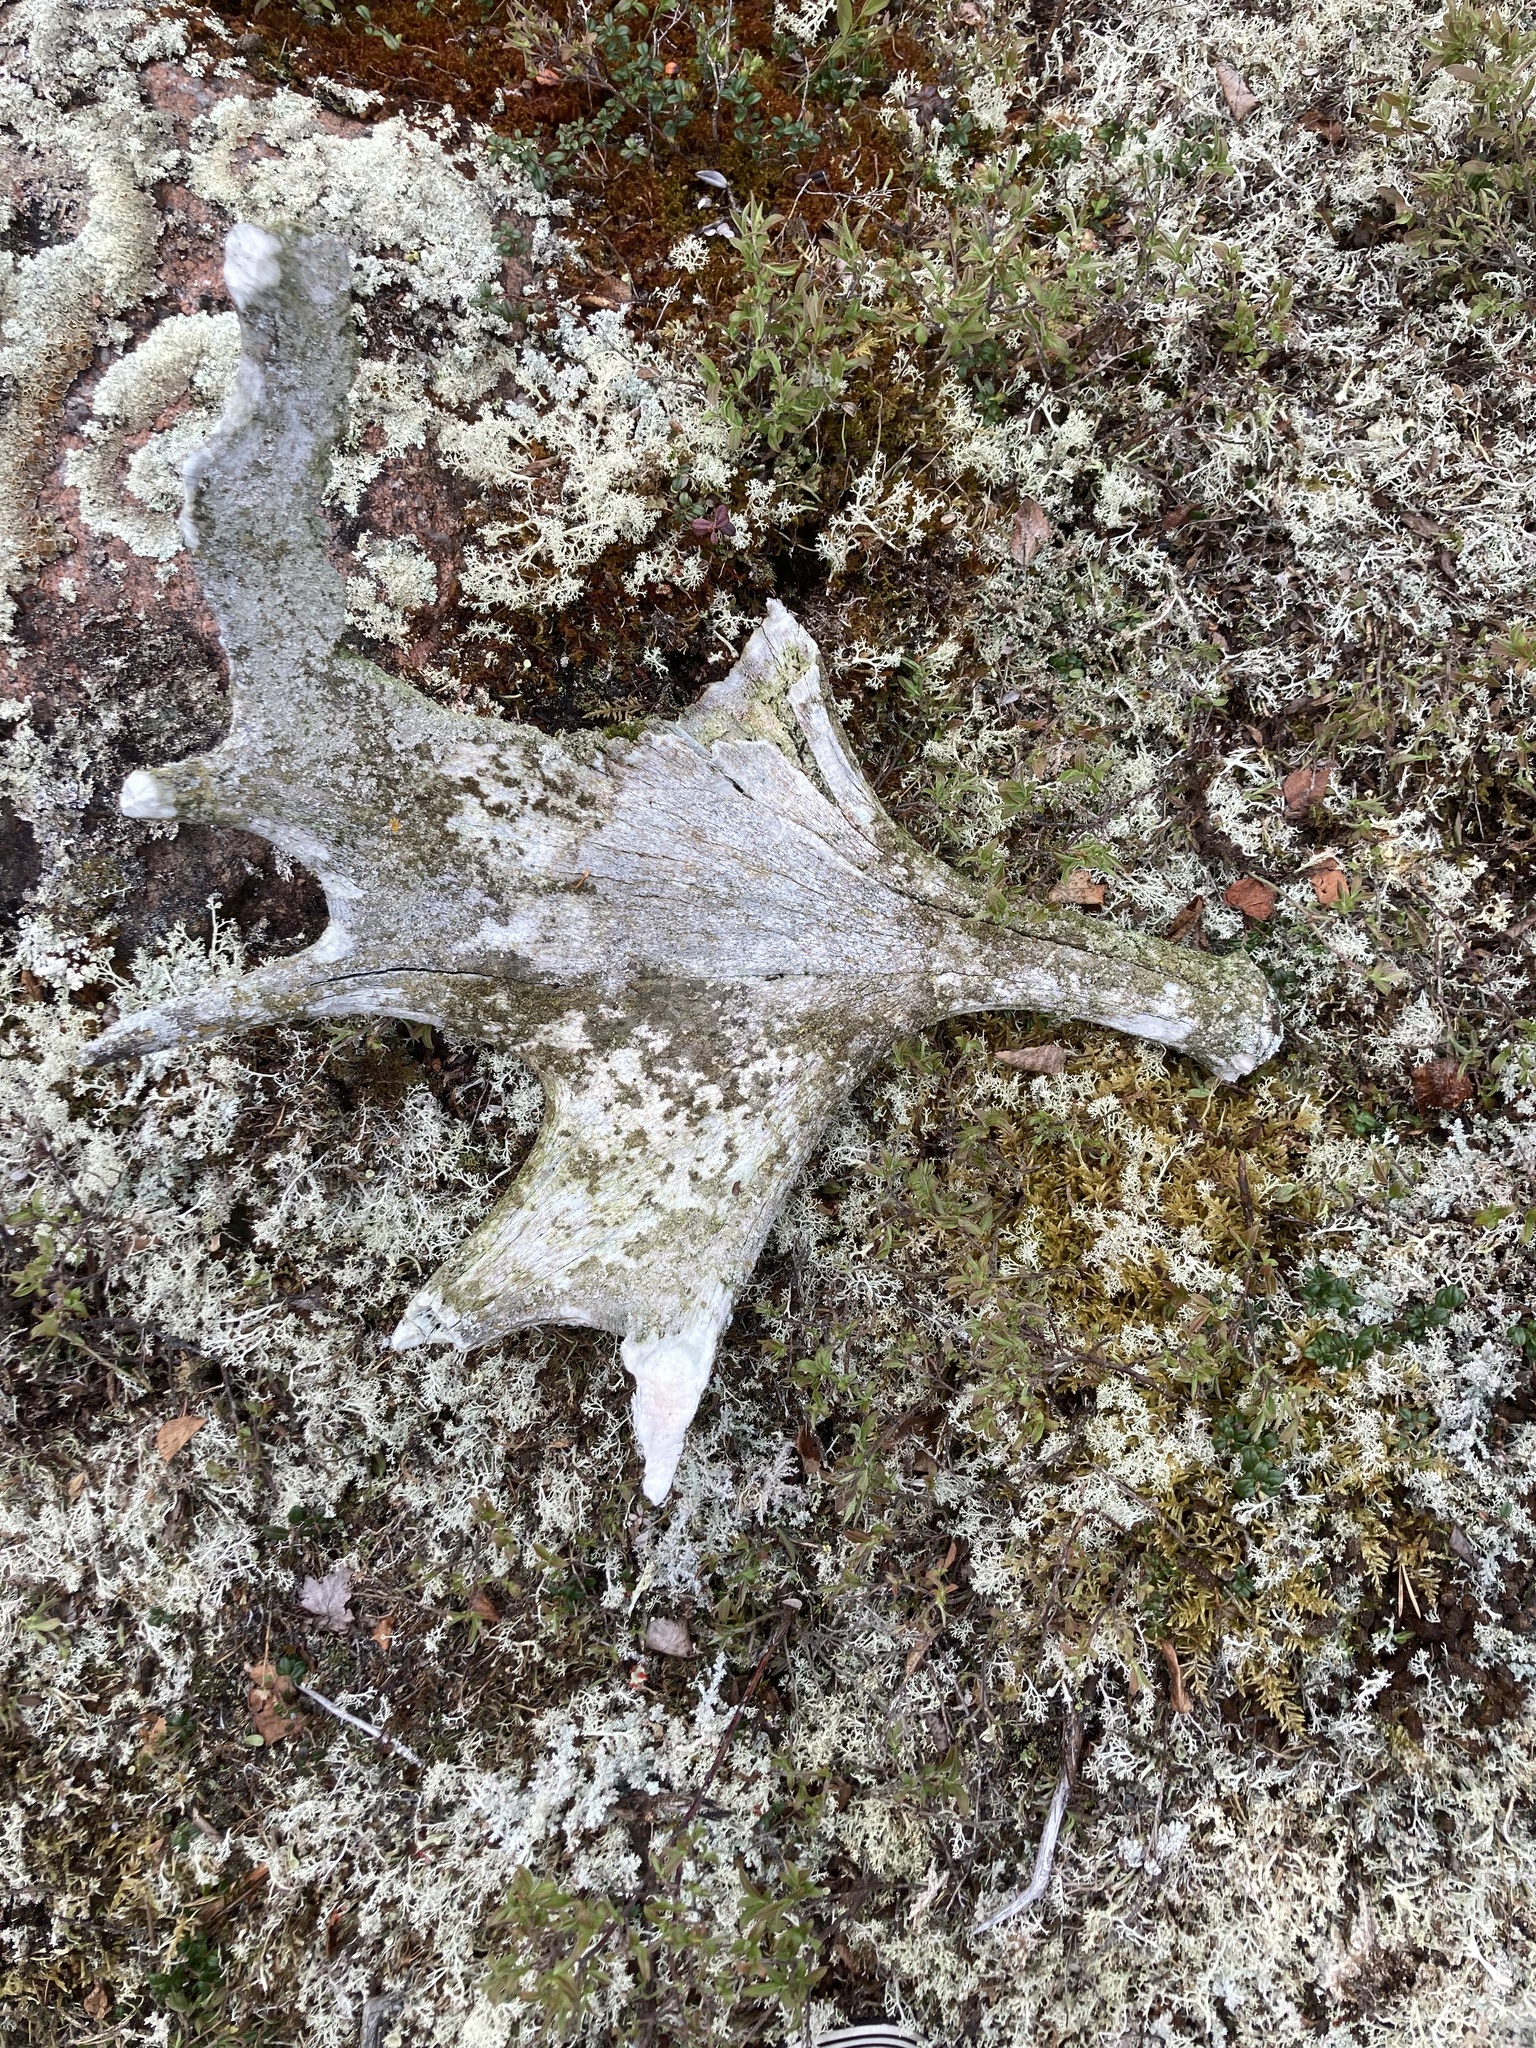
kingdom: Animalia
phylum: Chordata
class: Mammalia
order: Artiodactyla
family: Cervidae
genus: Alces
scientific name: Alces alces
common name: Moose
